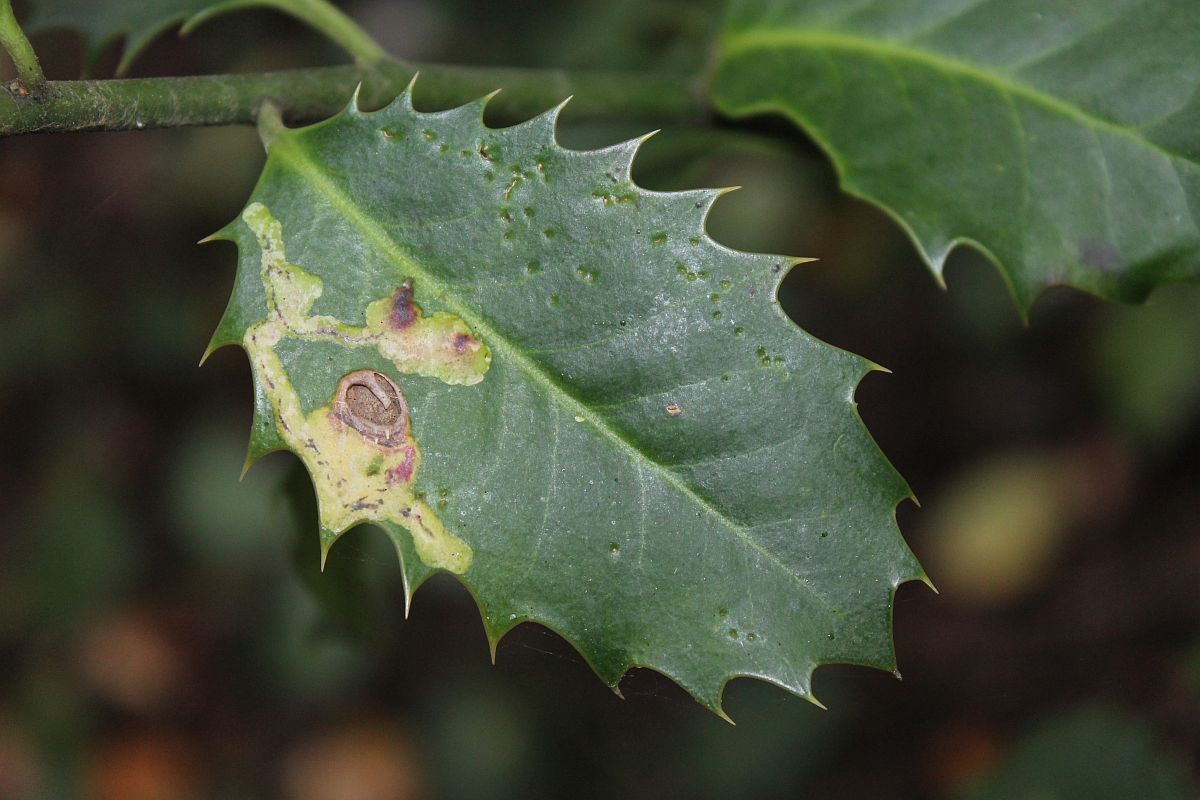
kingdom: Animalia
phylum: Arthropoda
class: Insecta
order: Diptera
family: Agromyzidae
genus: Phytomyza
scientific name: Phytomyza ilicis
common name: Holly leafminer
